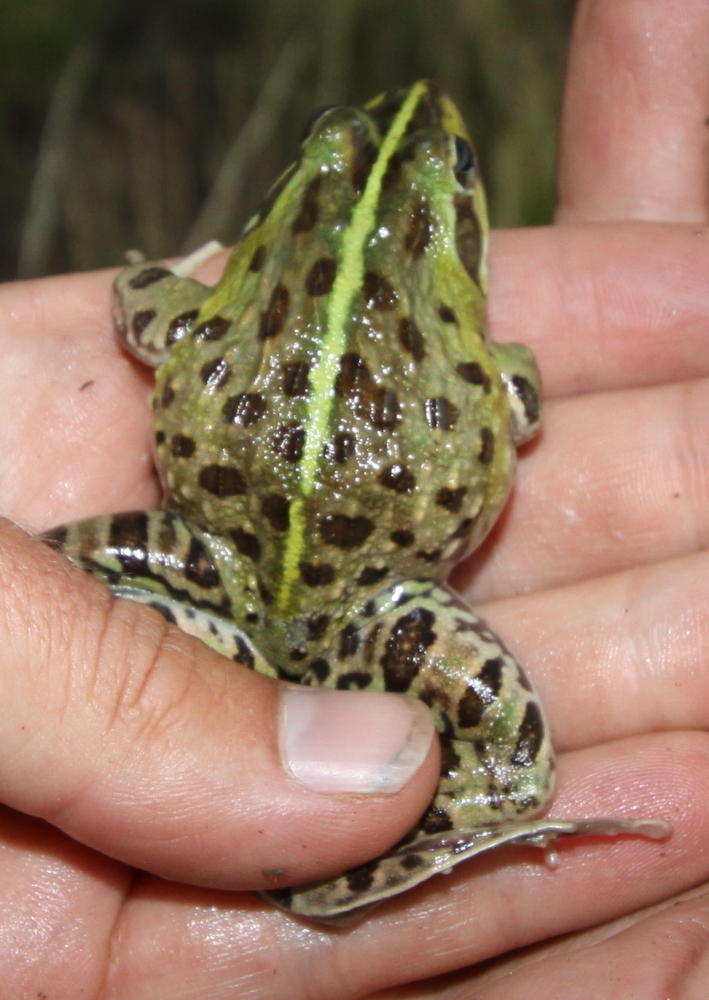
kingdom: Animalia
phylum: Chordata
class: Amphibia
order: Anura
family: Pyxicephalidae
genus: Amietia
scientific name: Amietia delalandii
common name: Delalande's river frog
